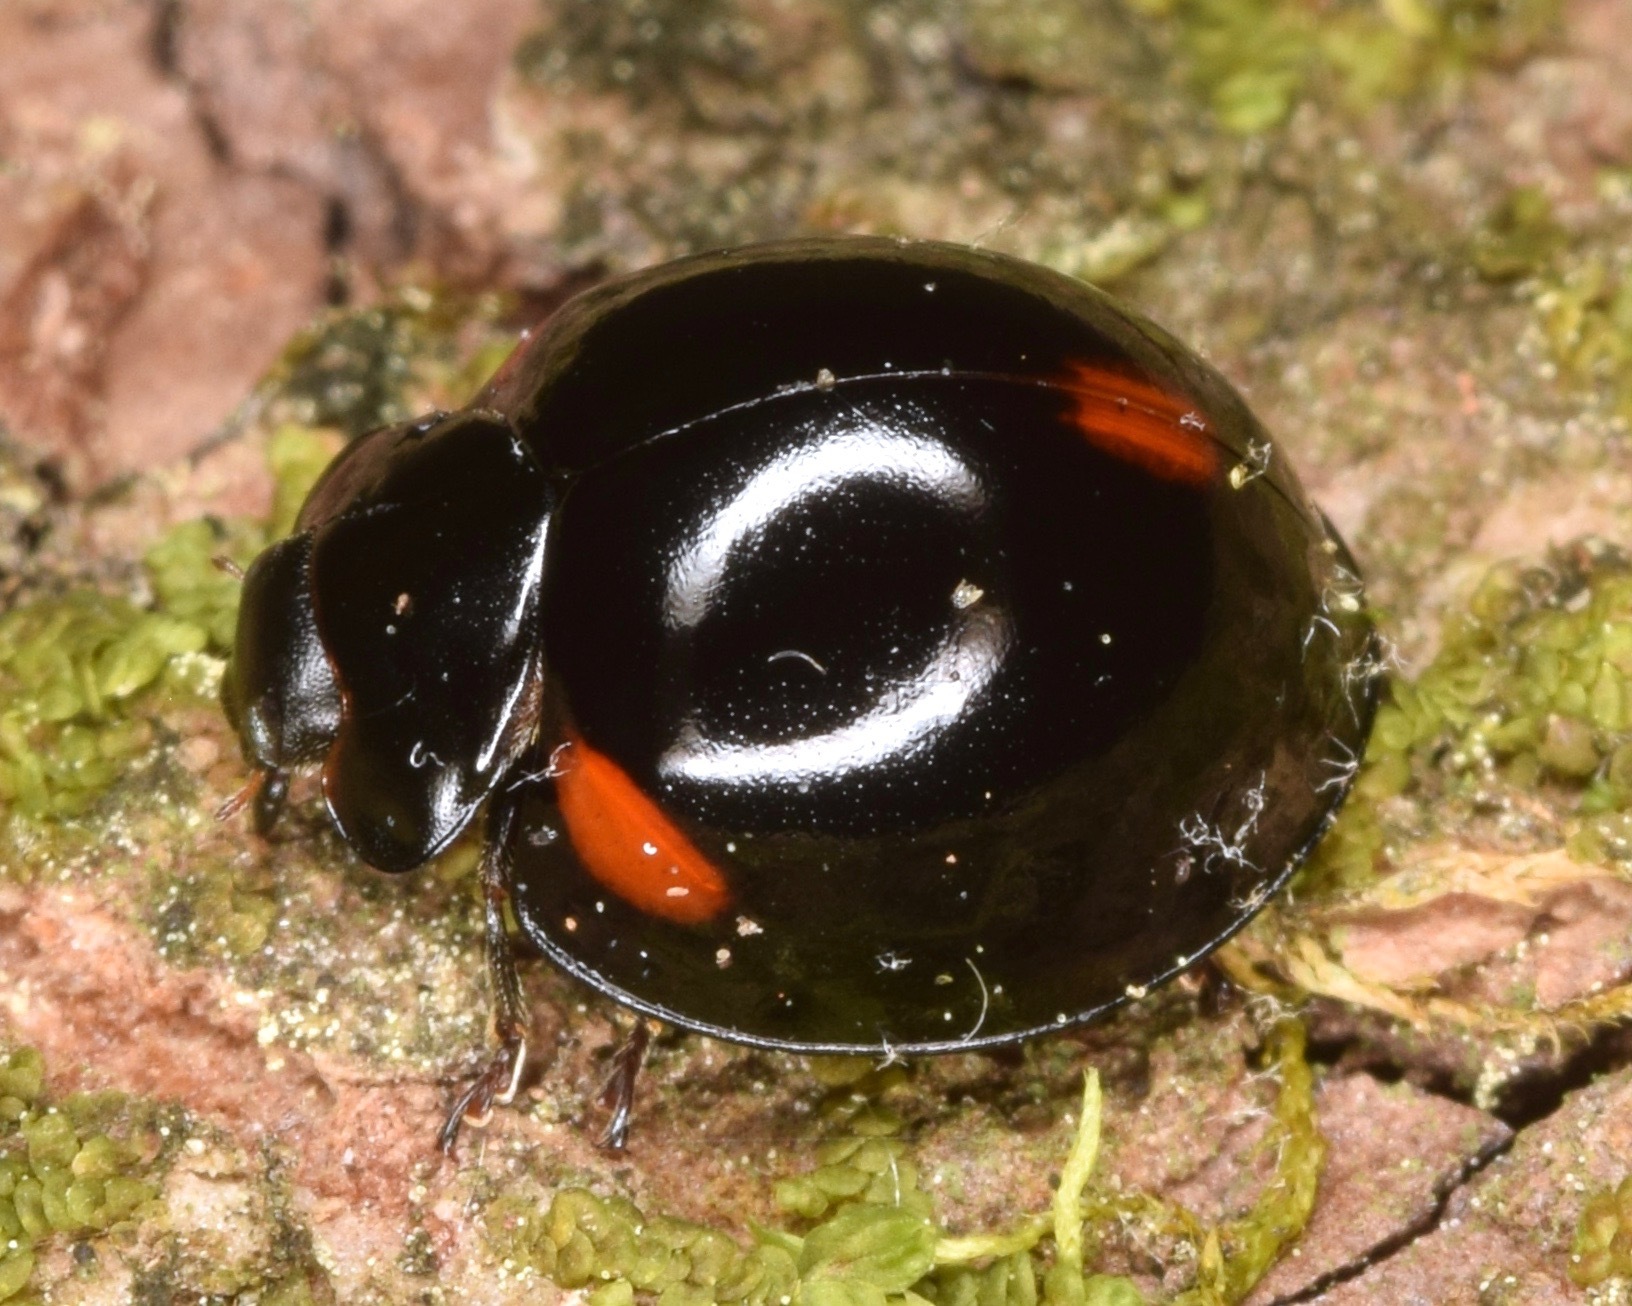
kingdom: Animalia
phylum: Arthropoda
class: Insecta
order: Coleoptera
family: Coccinellidae
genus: Axion
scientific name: Axion tripustulatum
